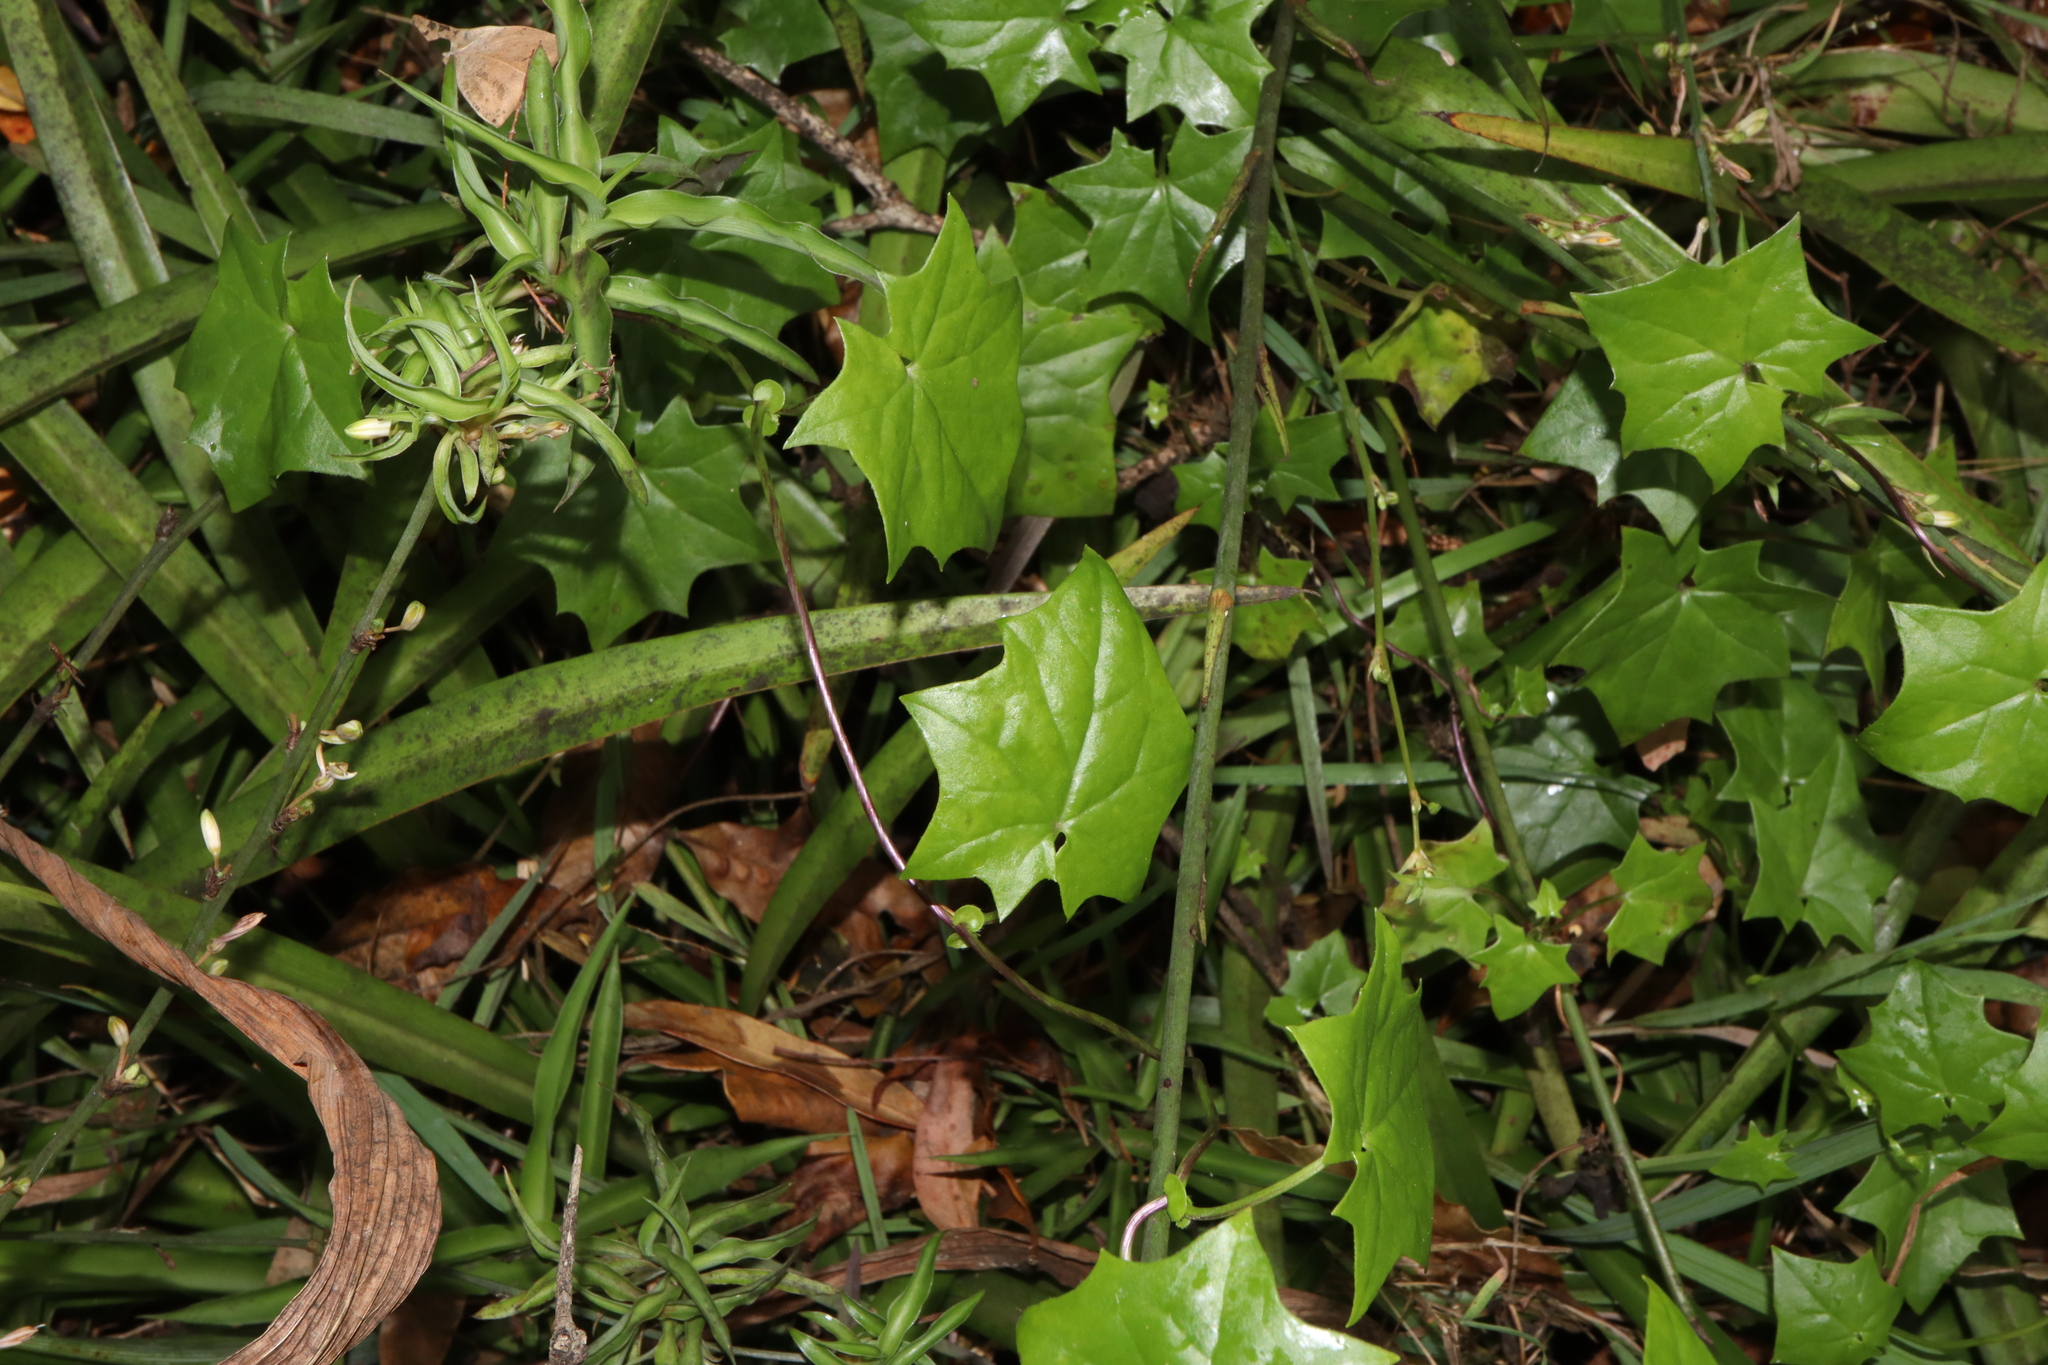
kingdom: Plantae
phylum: Tracheophyta
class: Magnoliopsida
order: Asterales
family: Asteraceae
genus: Delairea
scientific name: Delairea odorata
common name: Cape-ivy
